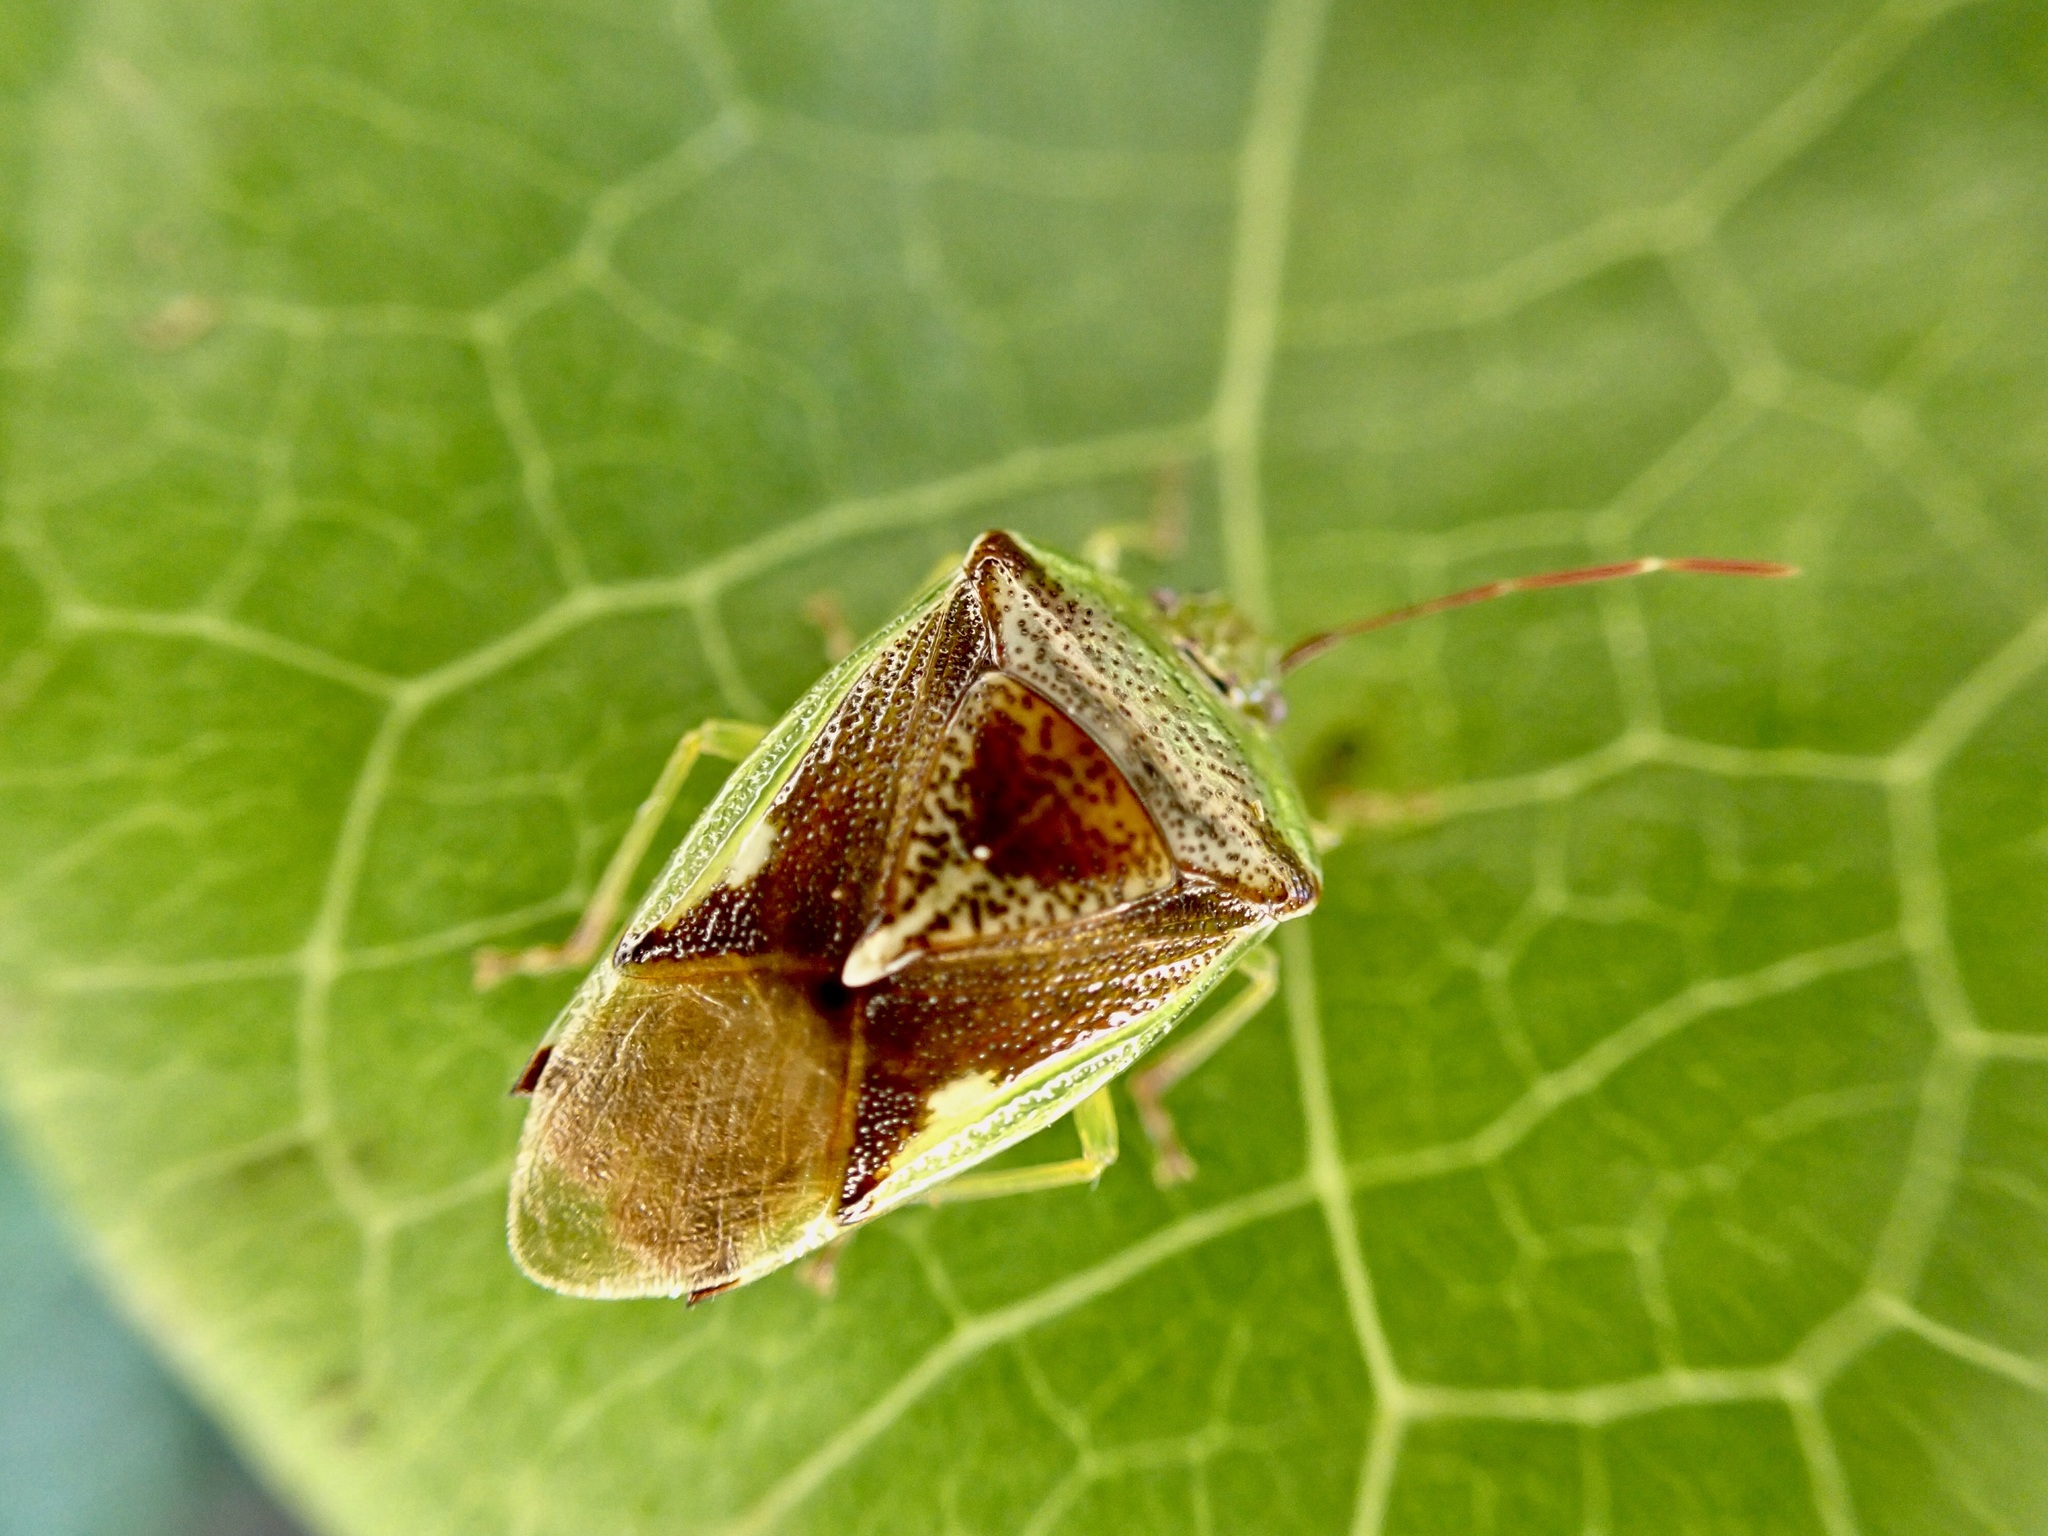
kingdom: Animalia
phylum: Arthropoda
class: Insecta
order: Hemiptera
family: Acanthosomatidae
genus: Oncacontias
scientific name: Oncacontias vittatus
